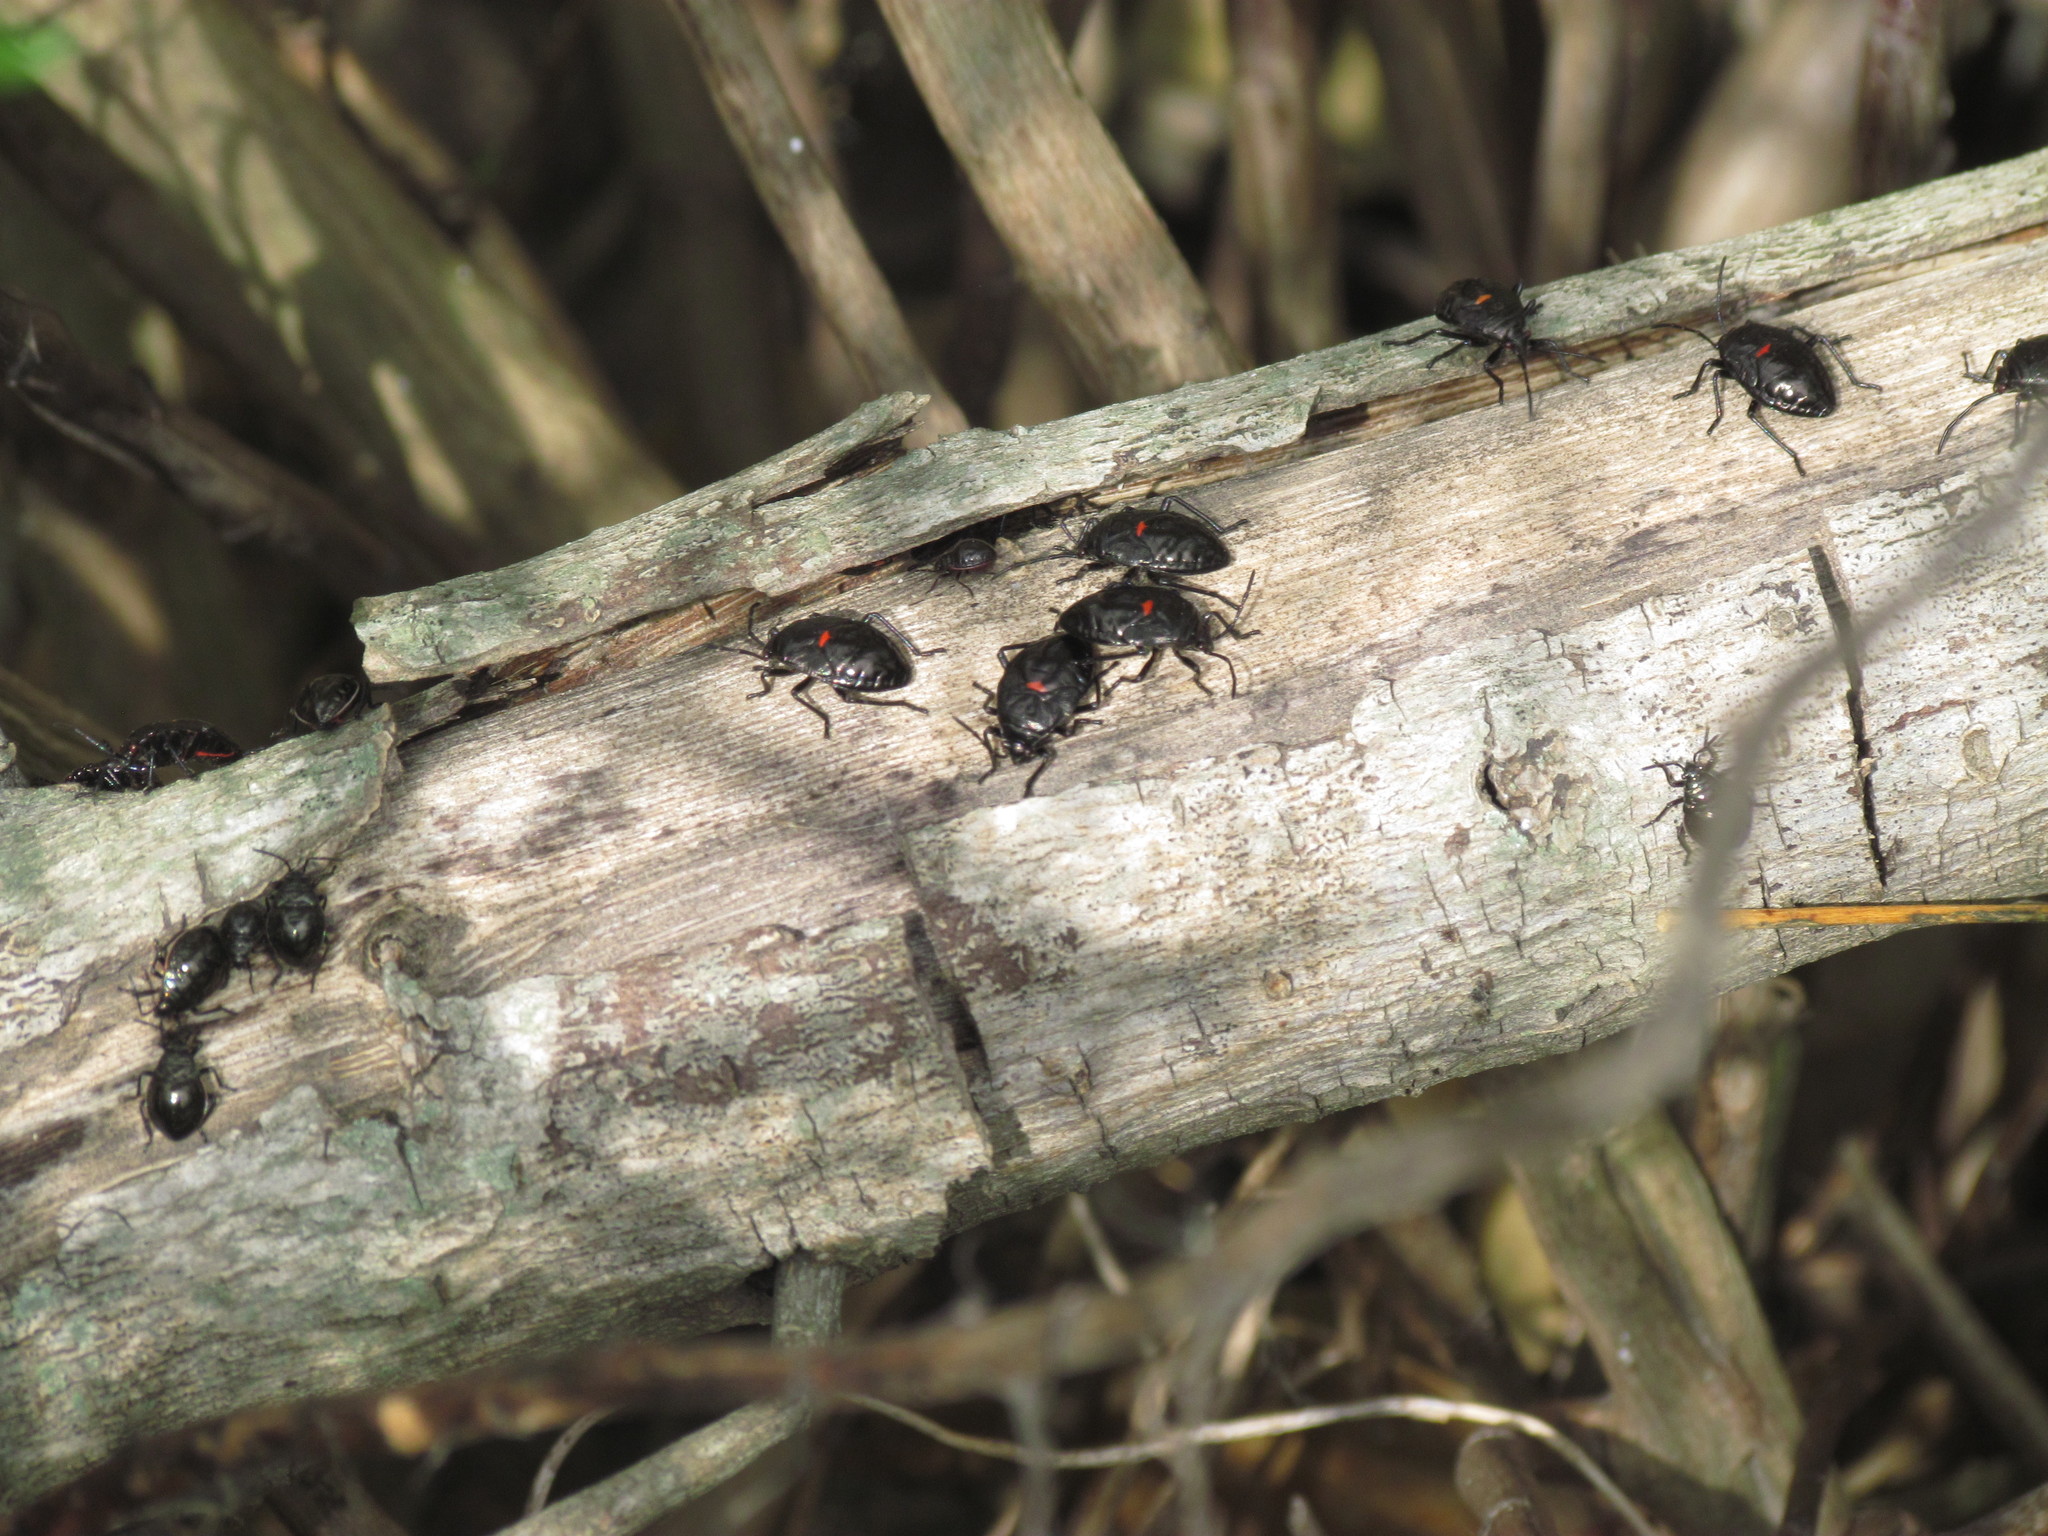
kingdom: Animalia
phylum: Arthropoda
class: Insecta
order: Hemiptera
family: Largidae
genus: Largus
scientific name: Largus rufipennis
